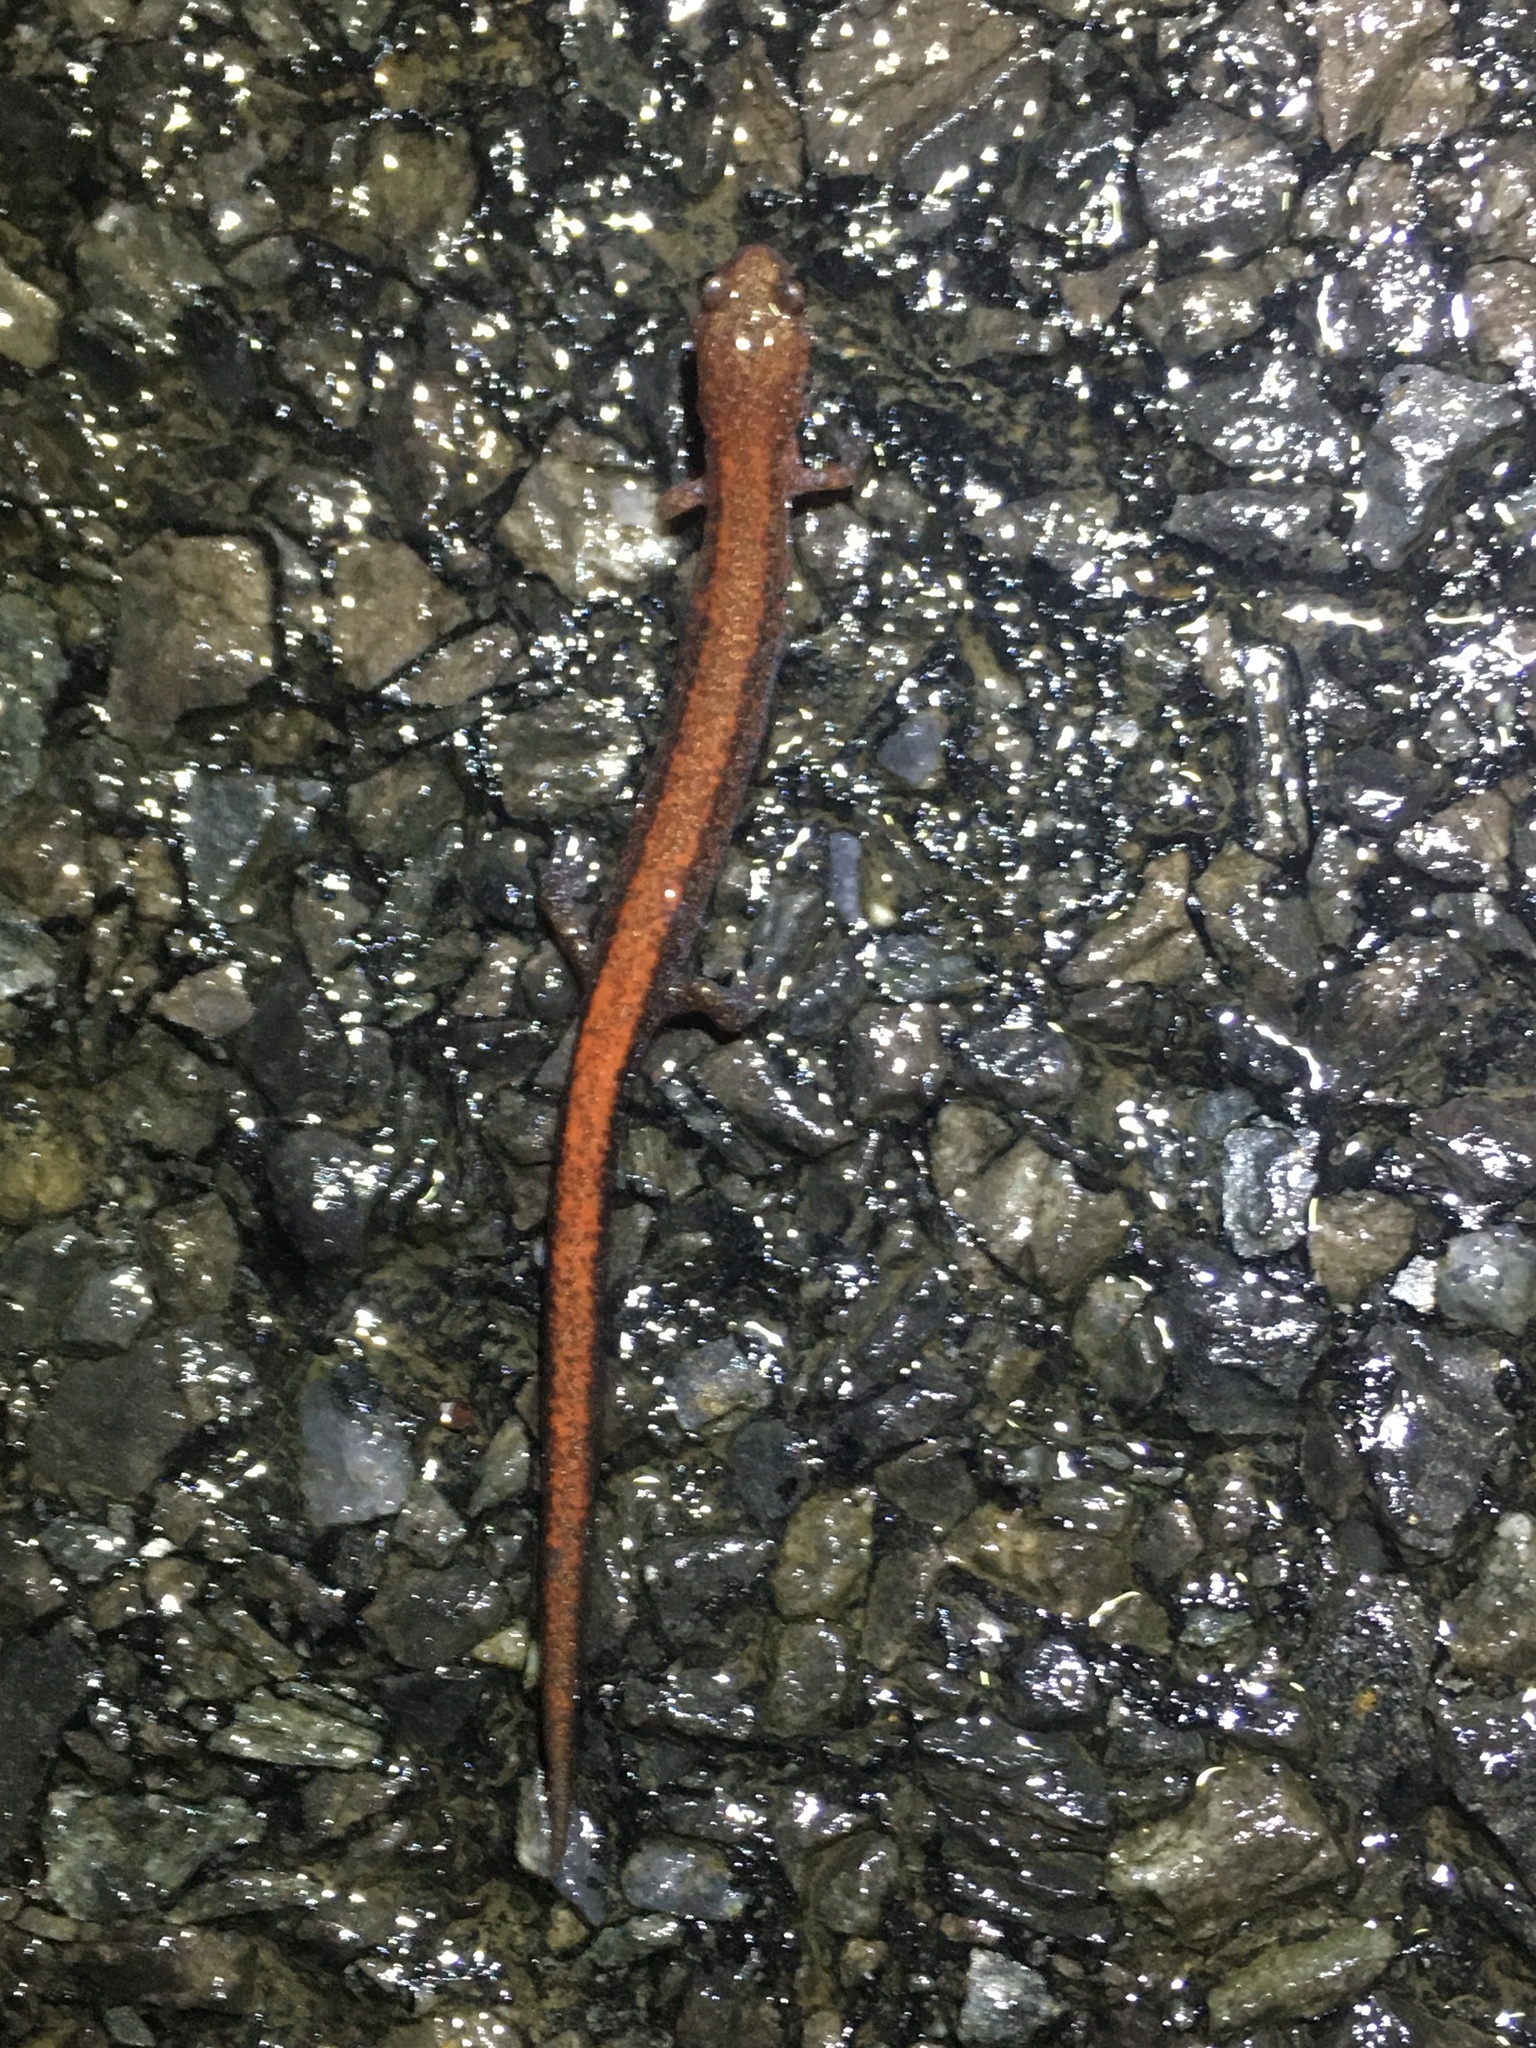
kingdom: Animalia
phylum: Chordata
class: Amphibia
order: Caudata
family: Plethodontidae
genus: Plethodon
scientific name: Plethodon cinereus
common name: Redback salamander
